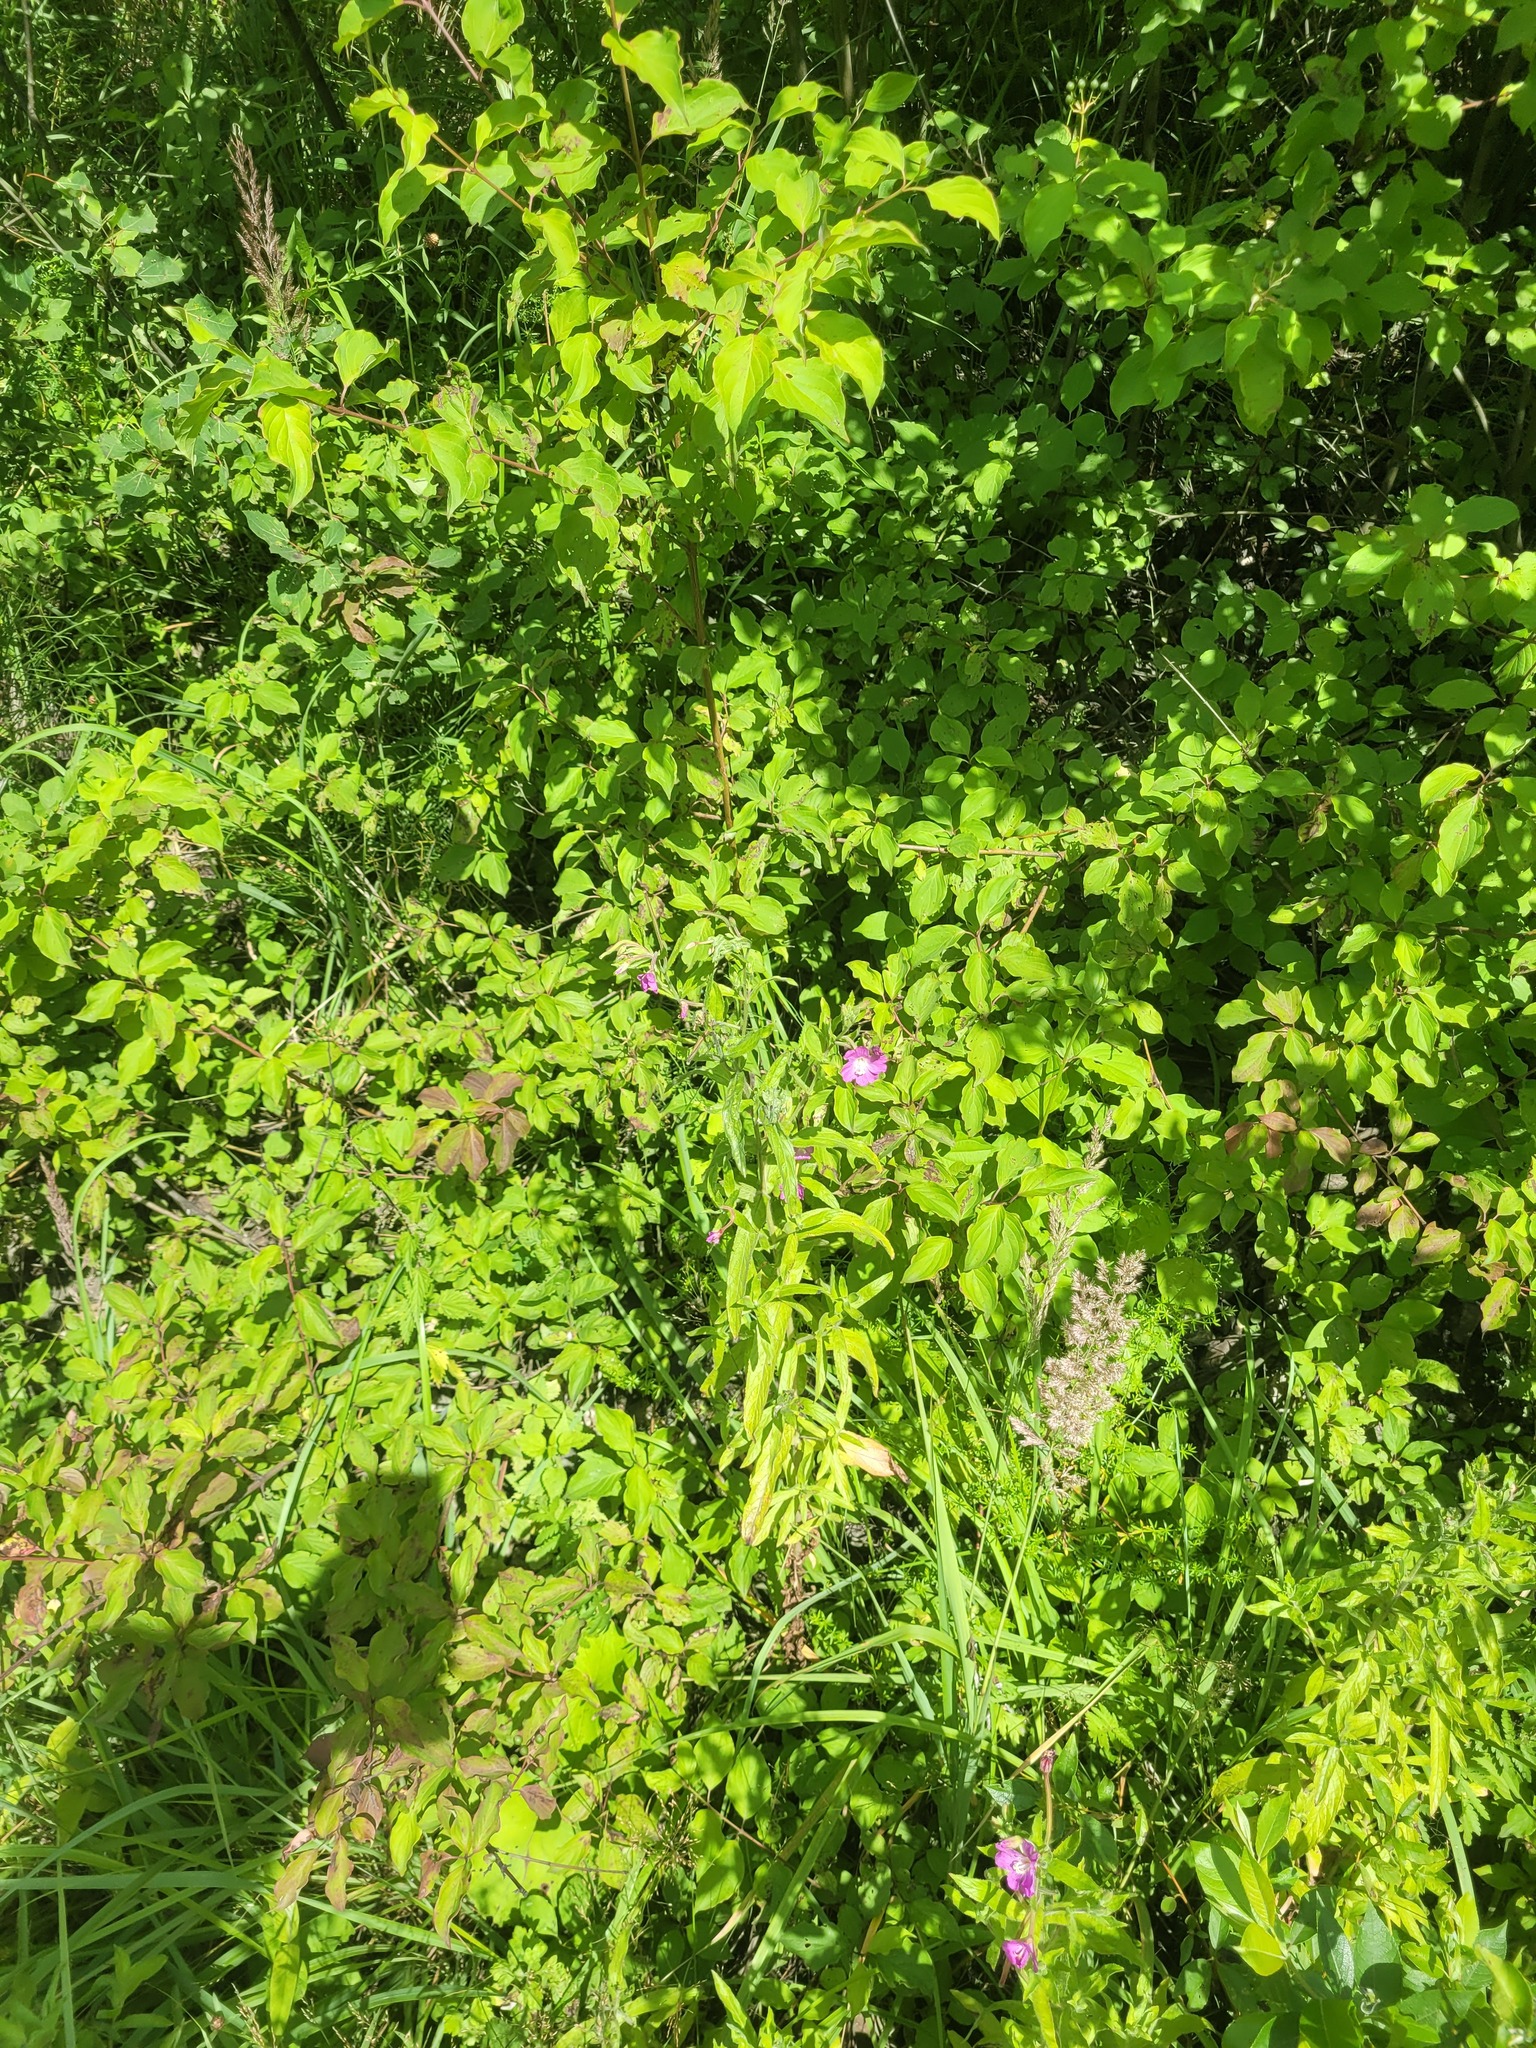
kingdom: Plantae
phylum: Tracheophyta
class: Magnoliopsida
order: Myrtales
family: Onagraceae
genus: Epilobium
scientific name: Epilobium hirsutum
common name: Great willowherb
